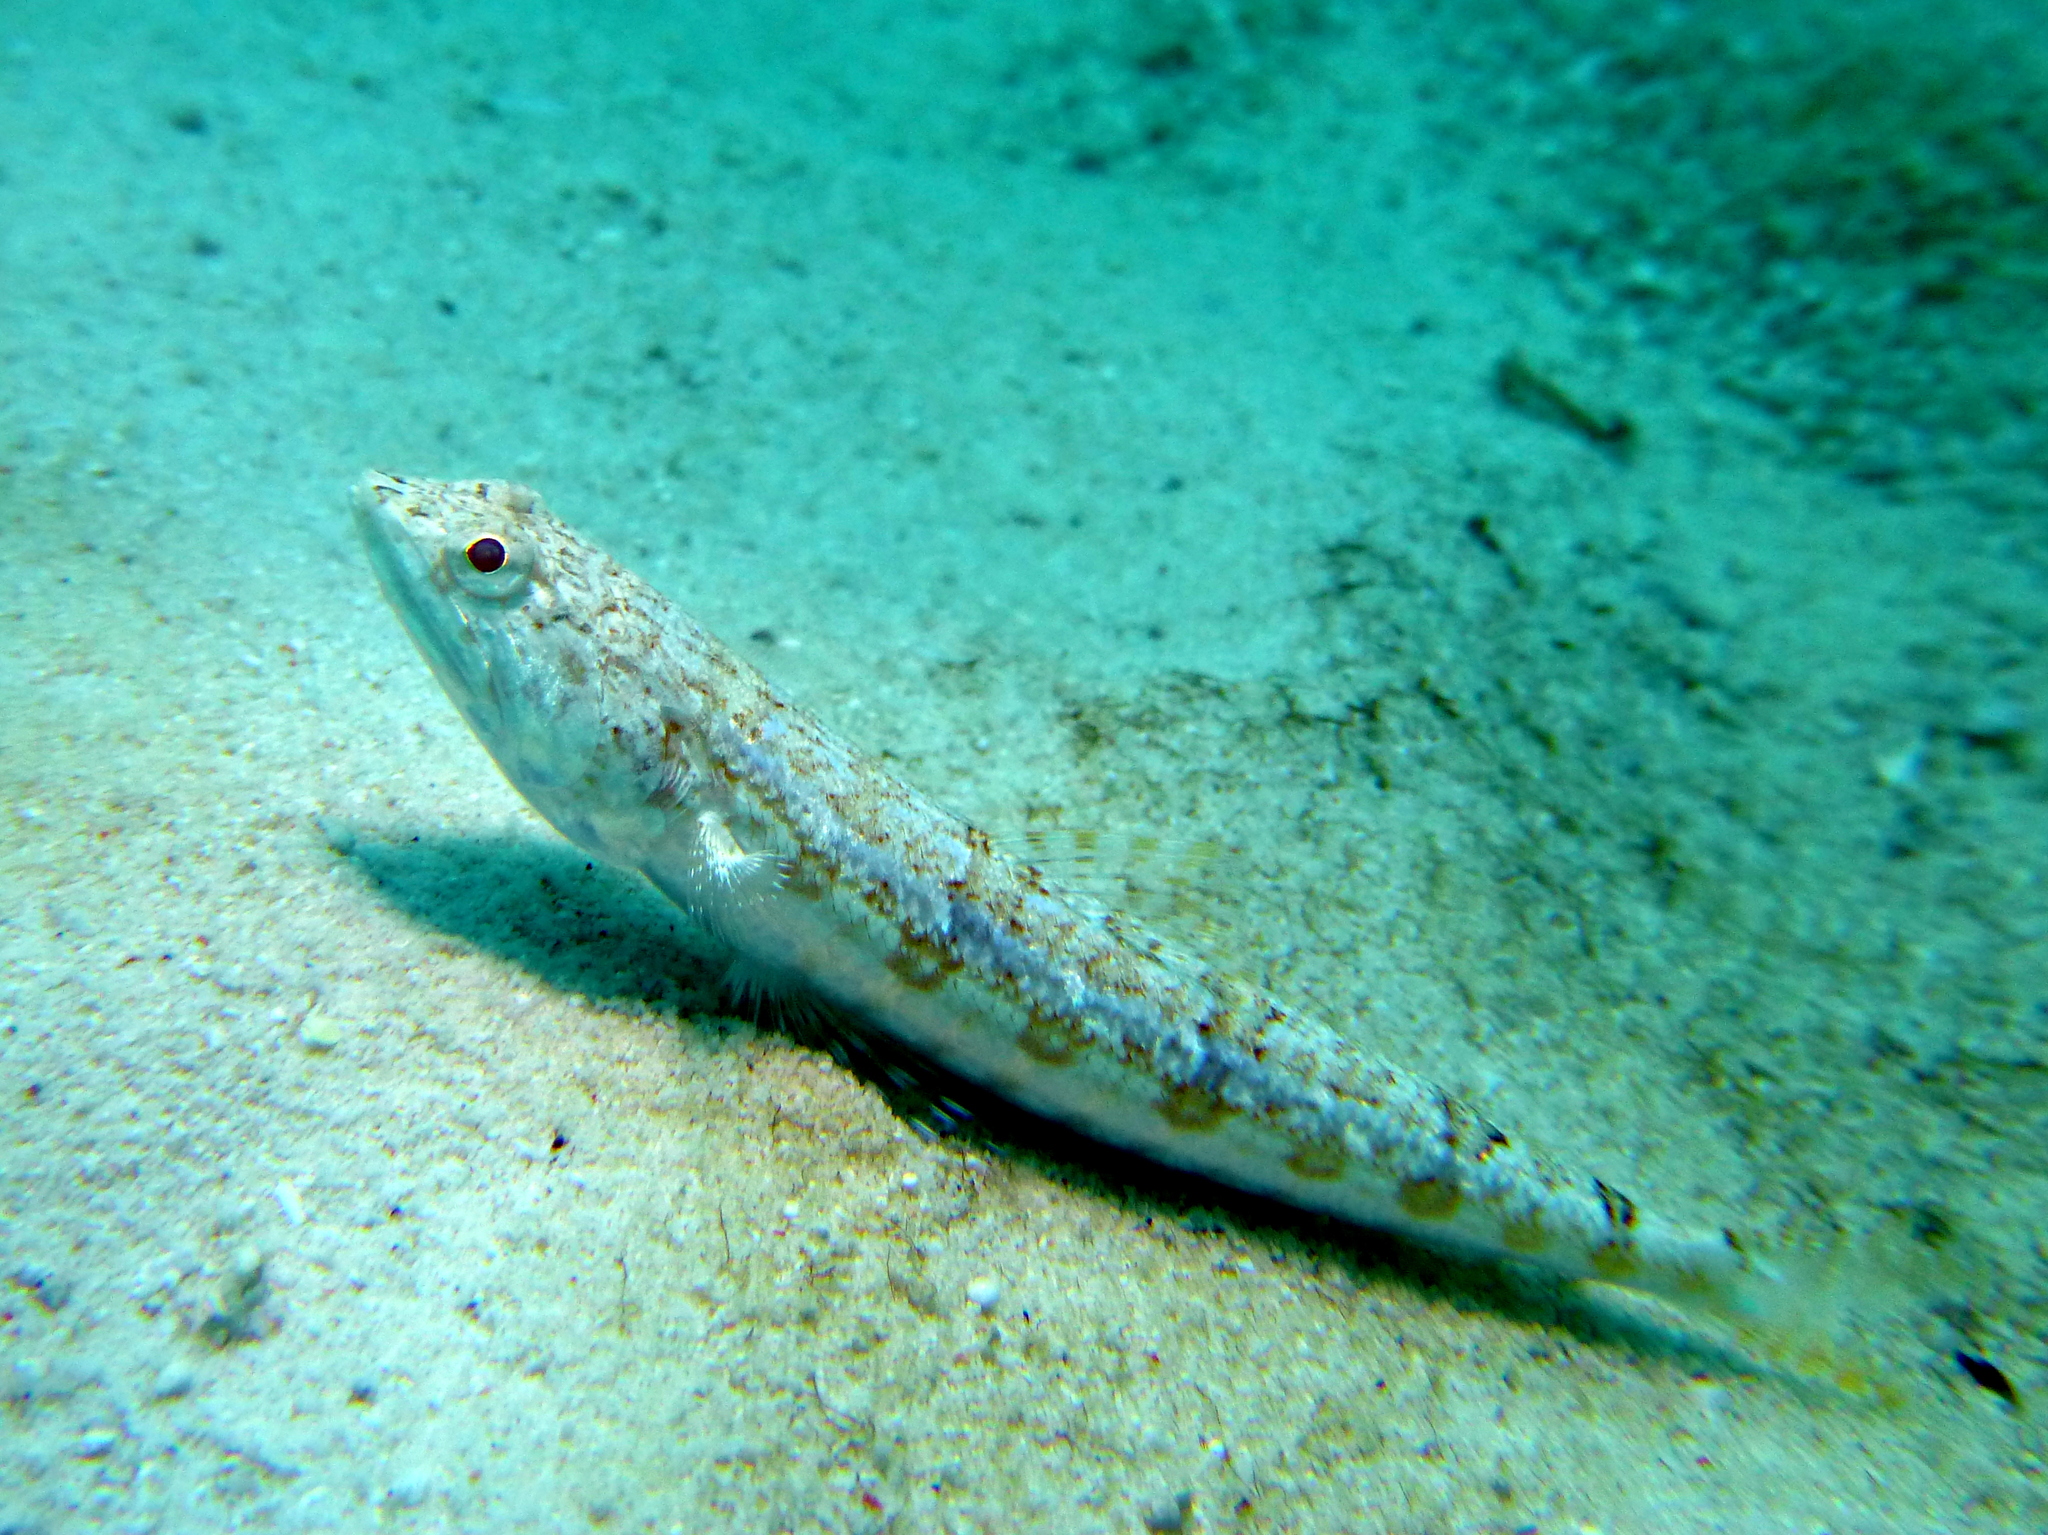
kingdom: Animalia
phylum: Chordata
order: Aulopiformes
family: Synodontidae
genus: Synodus
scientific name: Synodus dermatogenys
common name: Banded lizardfish
